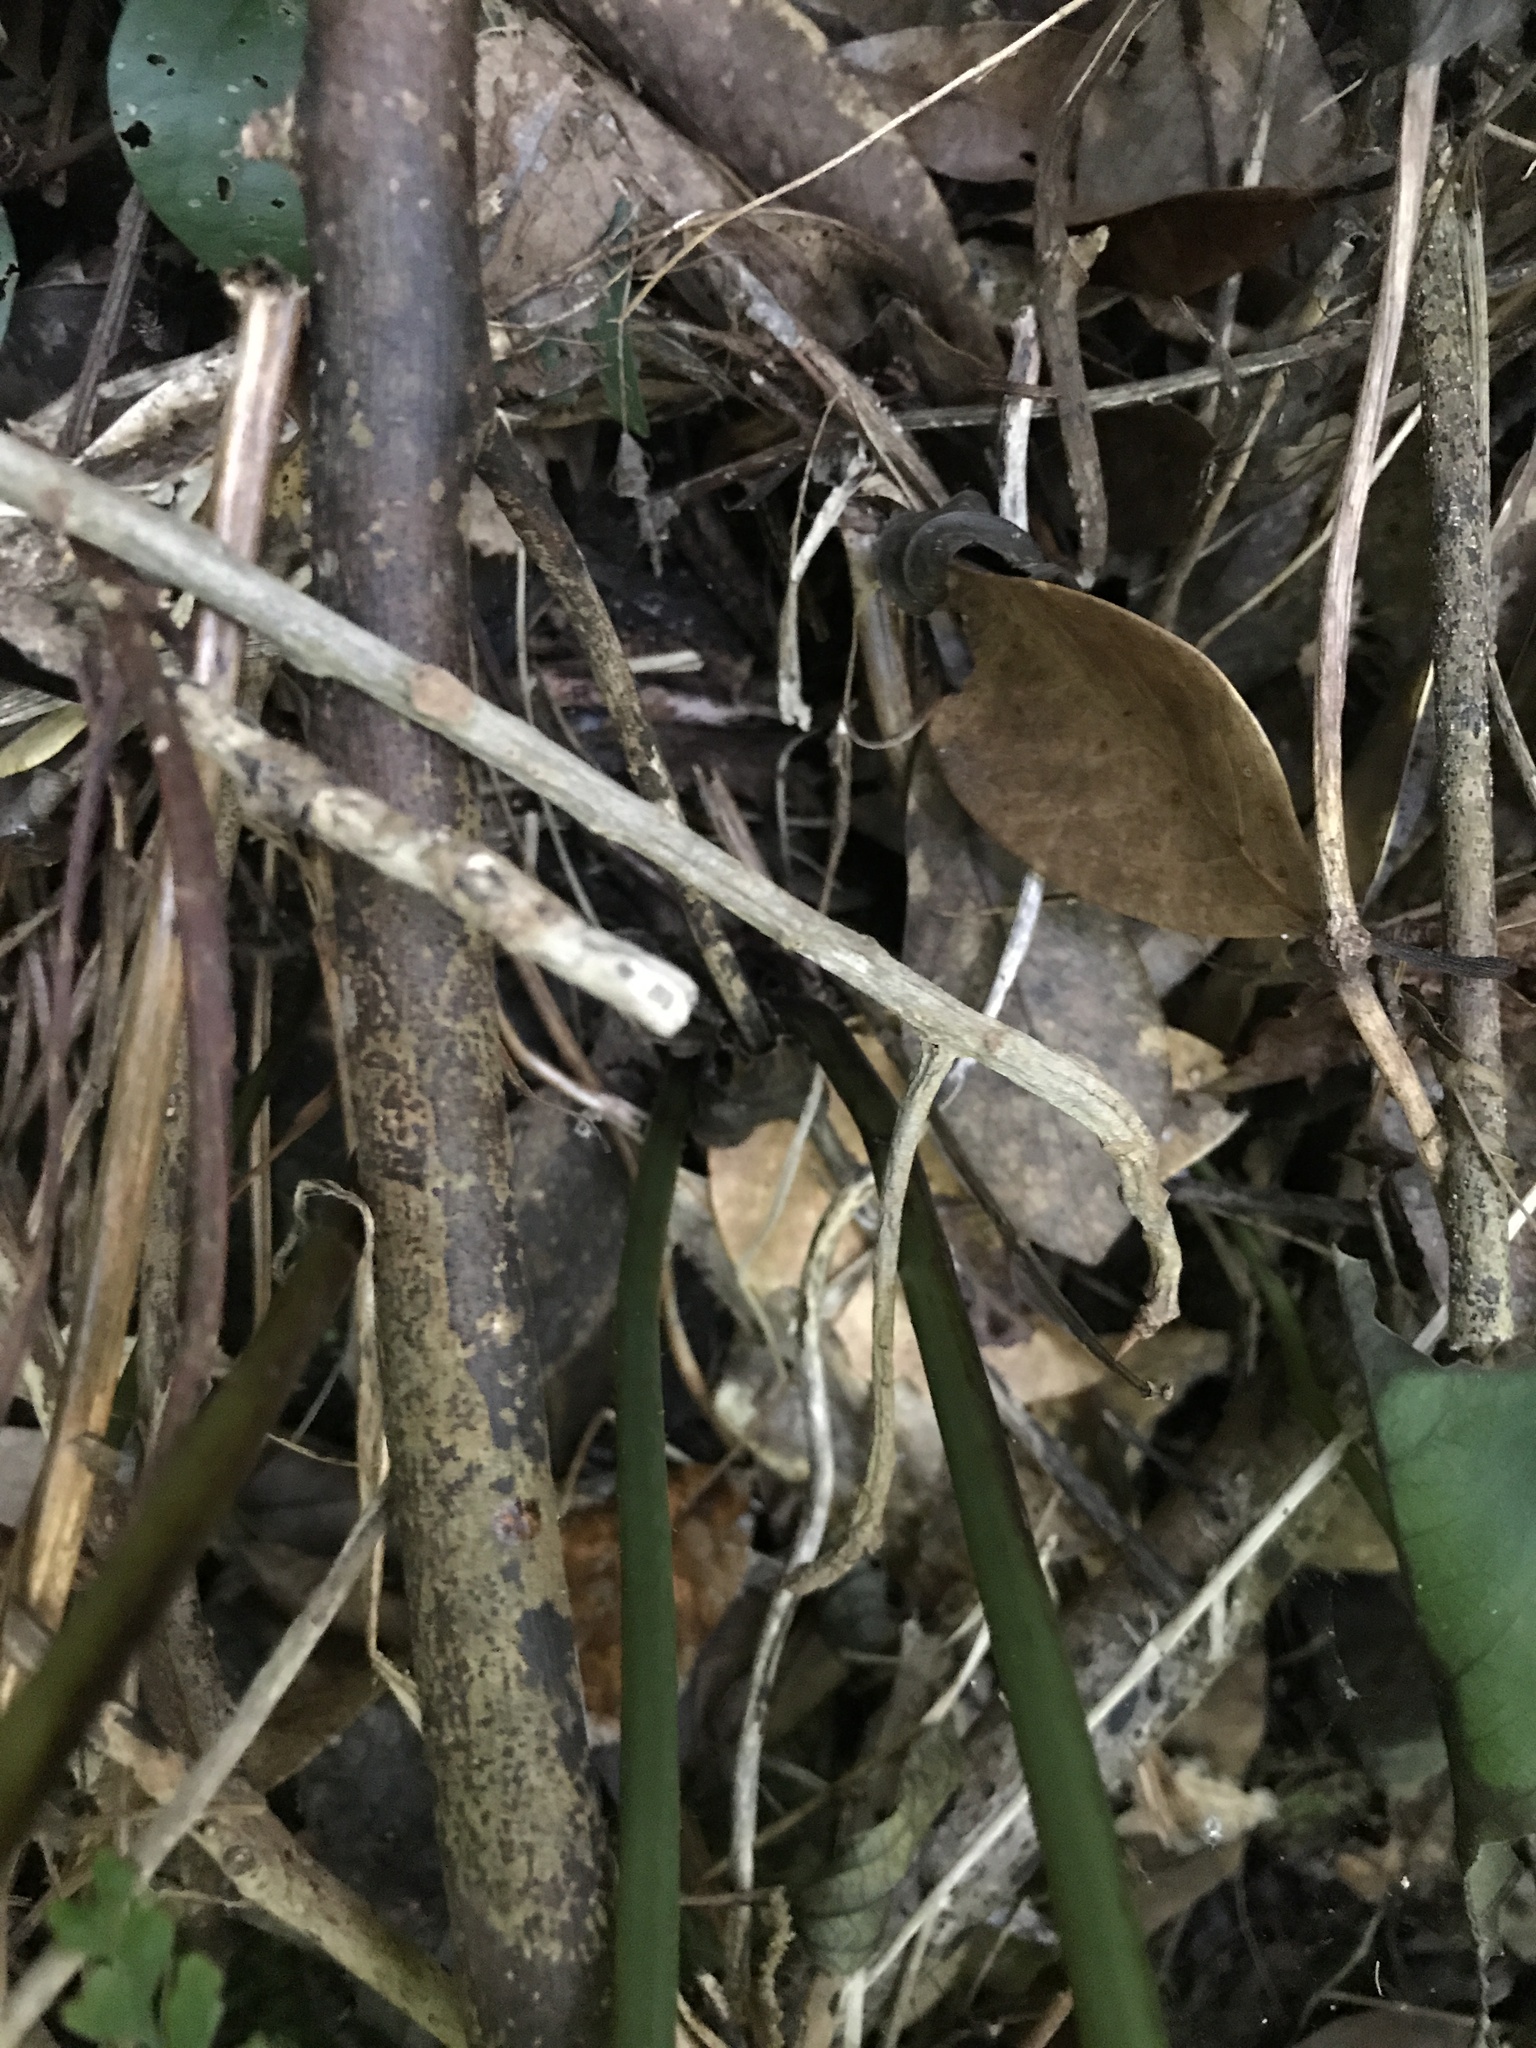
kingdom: Plantae
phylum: Tracheophyta
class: Polypodiopsida
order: Polypodiales
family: Dennstaedtiaceae
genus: Microlepia
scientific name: Microlepia strigosa
